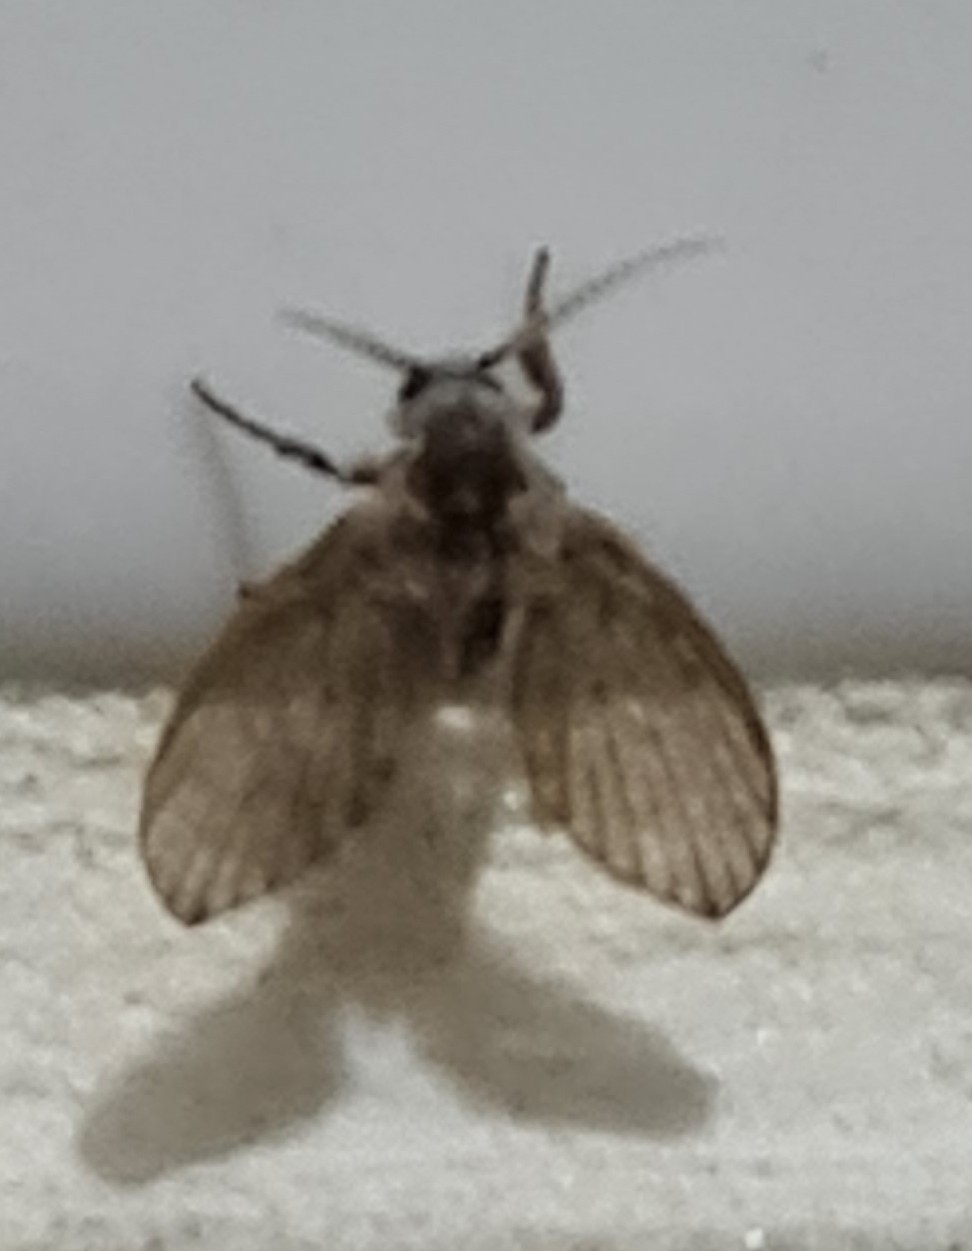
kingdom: Animalia
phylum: Arthropoda
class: Insecta
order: Diptera
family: Psychodidae
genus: Clogmia
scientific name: Clogmia albipunctatus
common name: White-spotted moth fly
